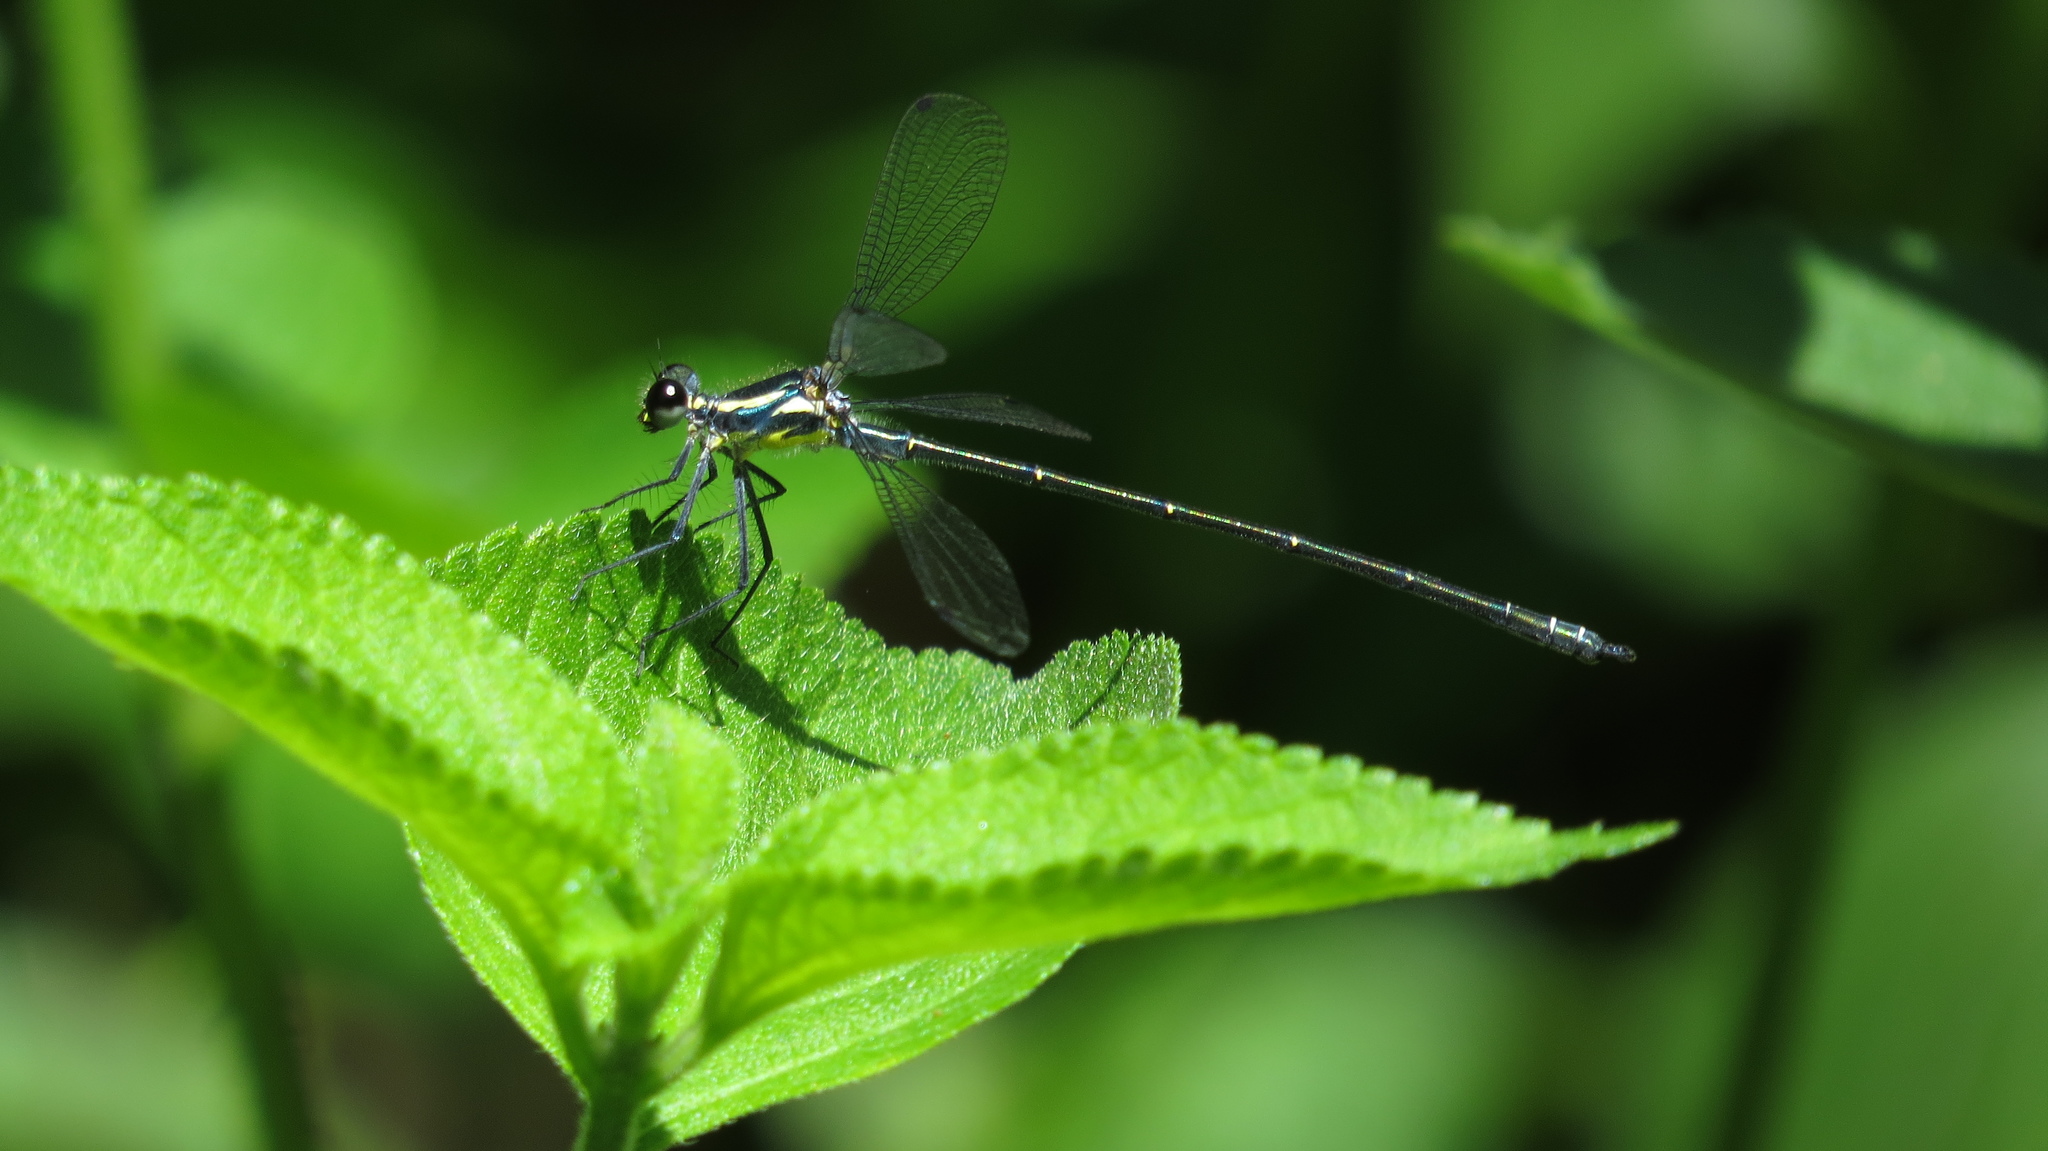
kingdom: Animalia
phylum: Arthropoda
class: Insecta
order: Odonata
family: Argiolestidae
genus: Austroargiolestes
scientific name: Austroargiolestes icteromelas
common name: Common flatwing
